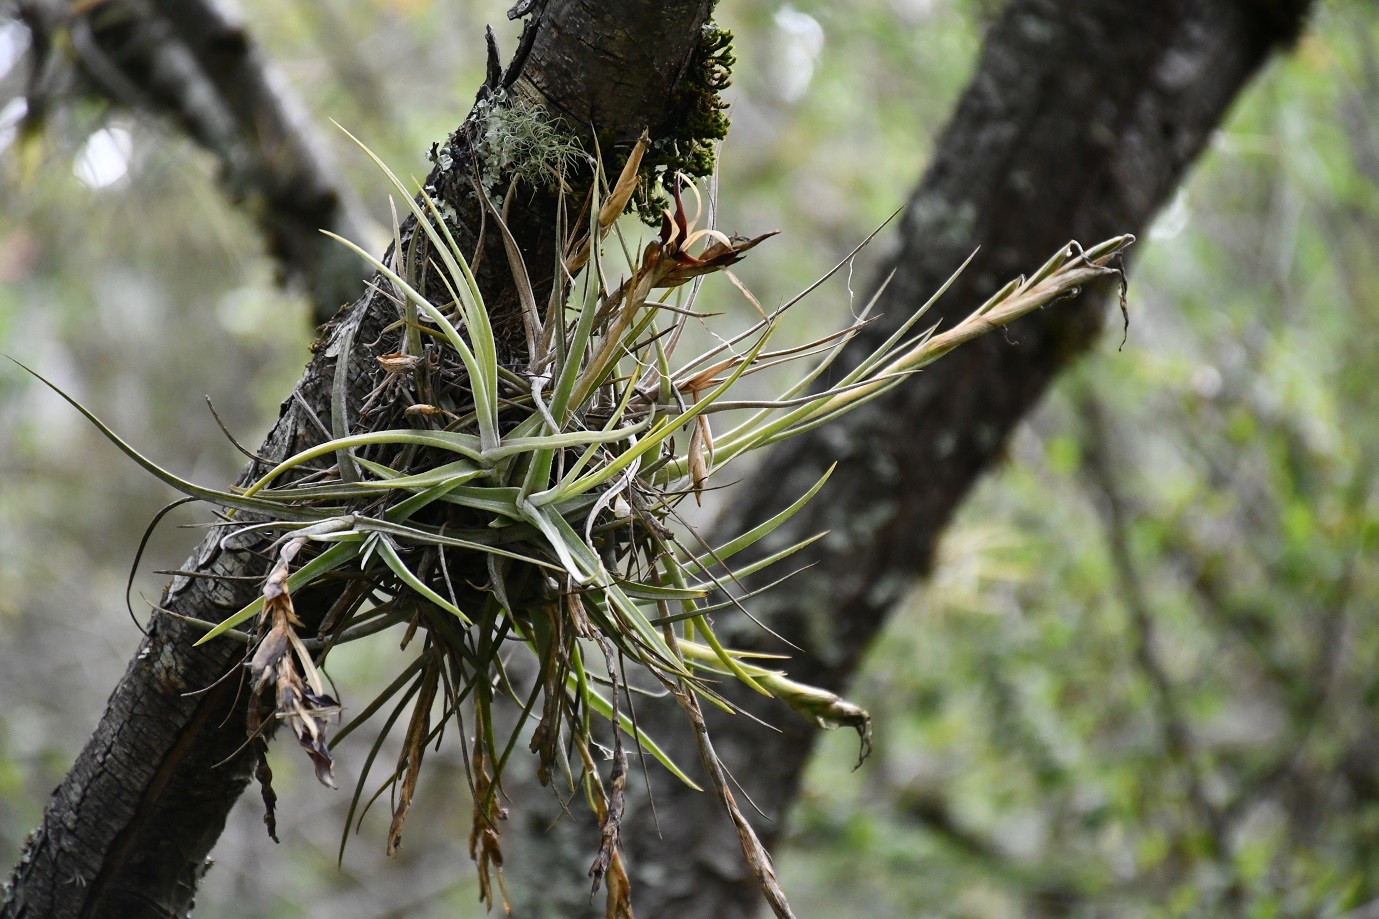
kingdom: Plantae
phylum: Tracheophyta
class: Liliopsida
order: Poales
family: Bromeliaceae
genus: Tillandsia
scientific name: Tillandsia balbisiana
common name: Northern needleleaf
